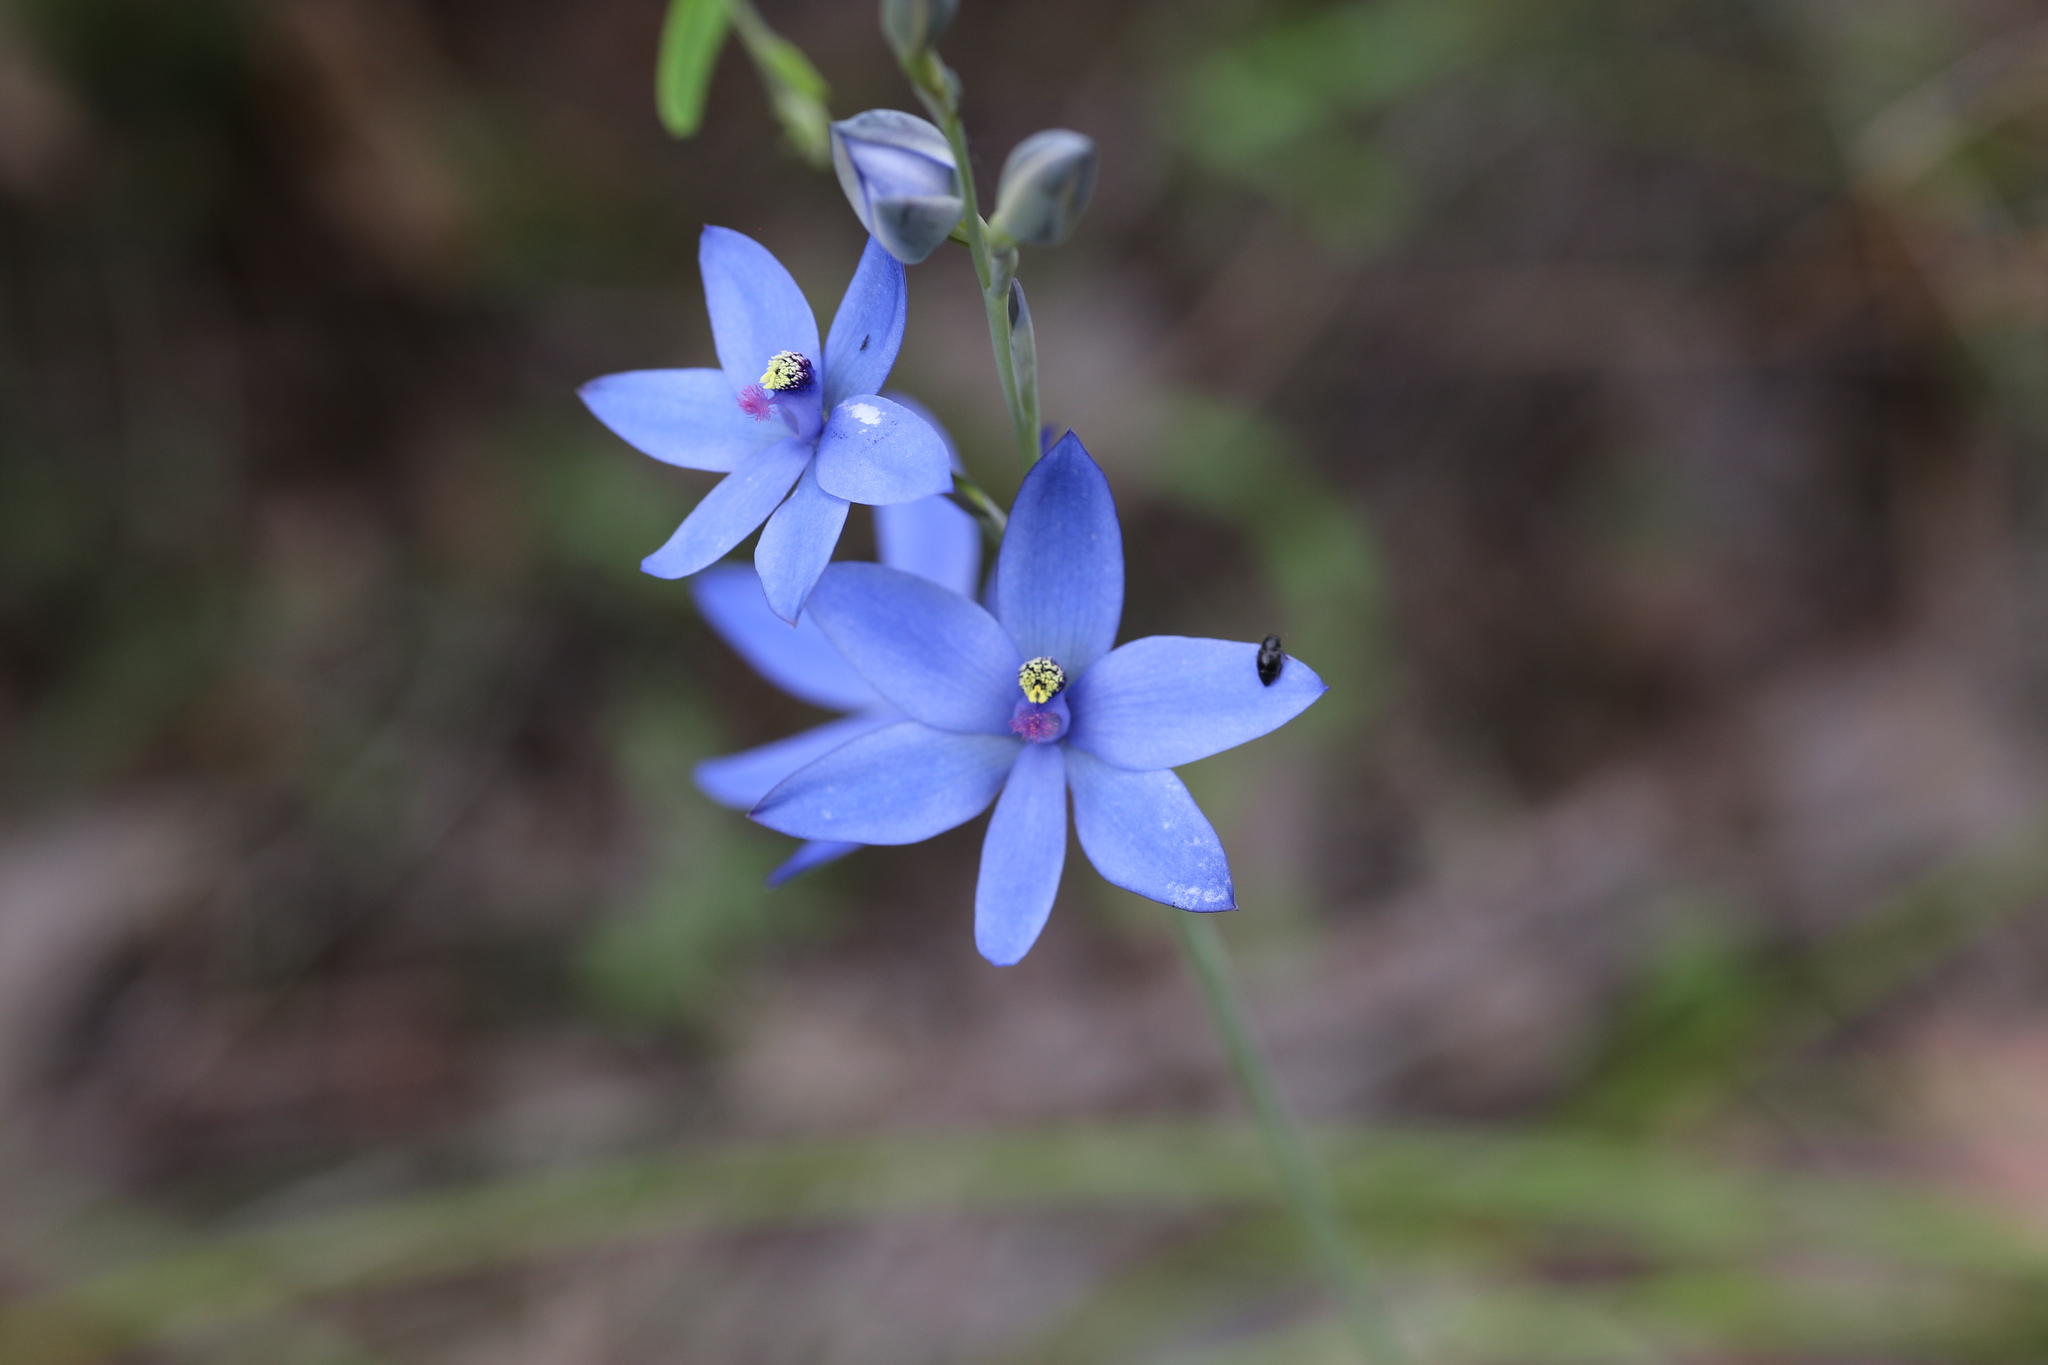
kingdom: Plantae
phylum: Tracheophyta
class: Liliopsida
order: Asparagales
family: Orchidaceae
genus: Thelymitra
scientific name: Thelymitra crinita
